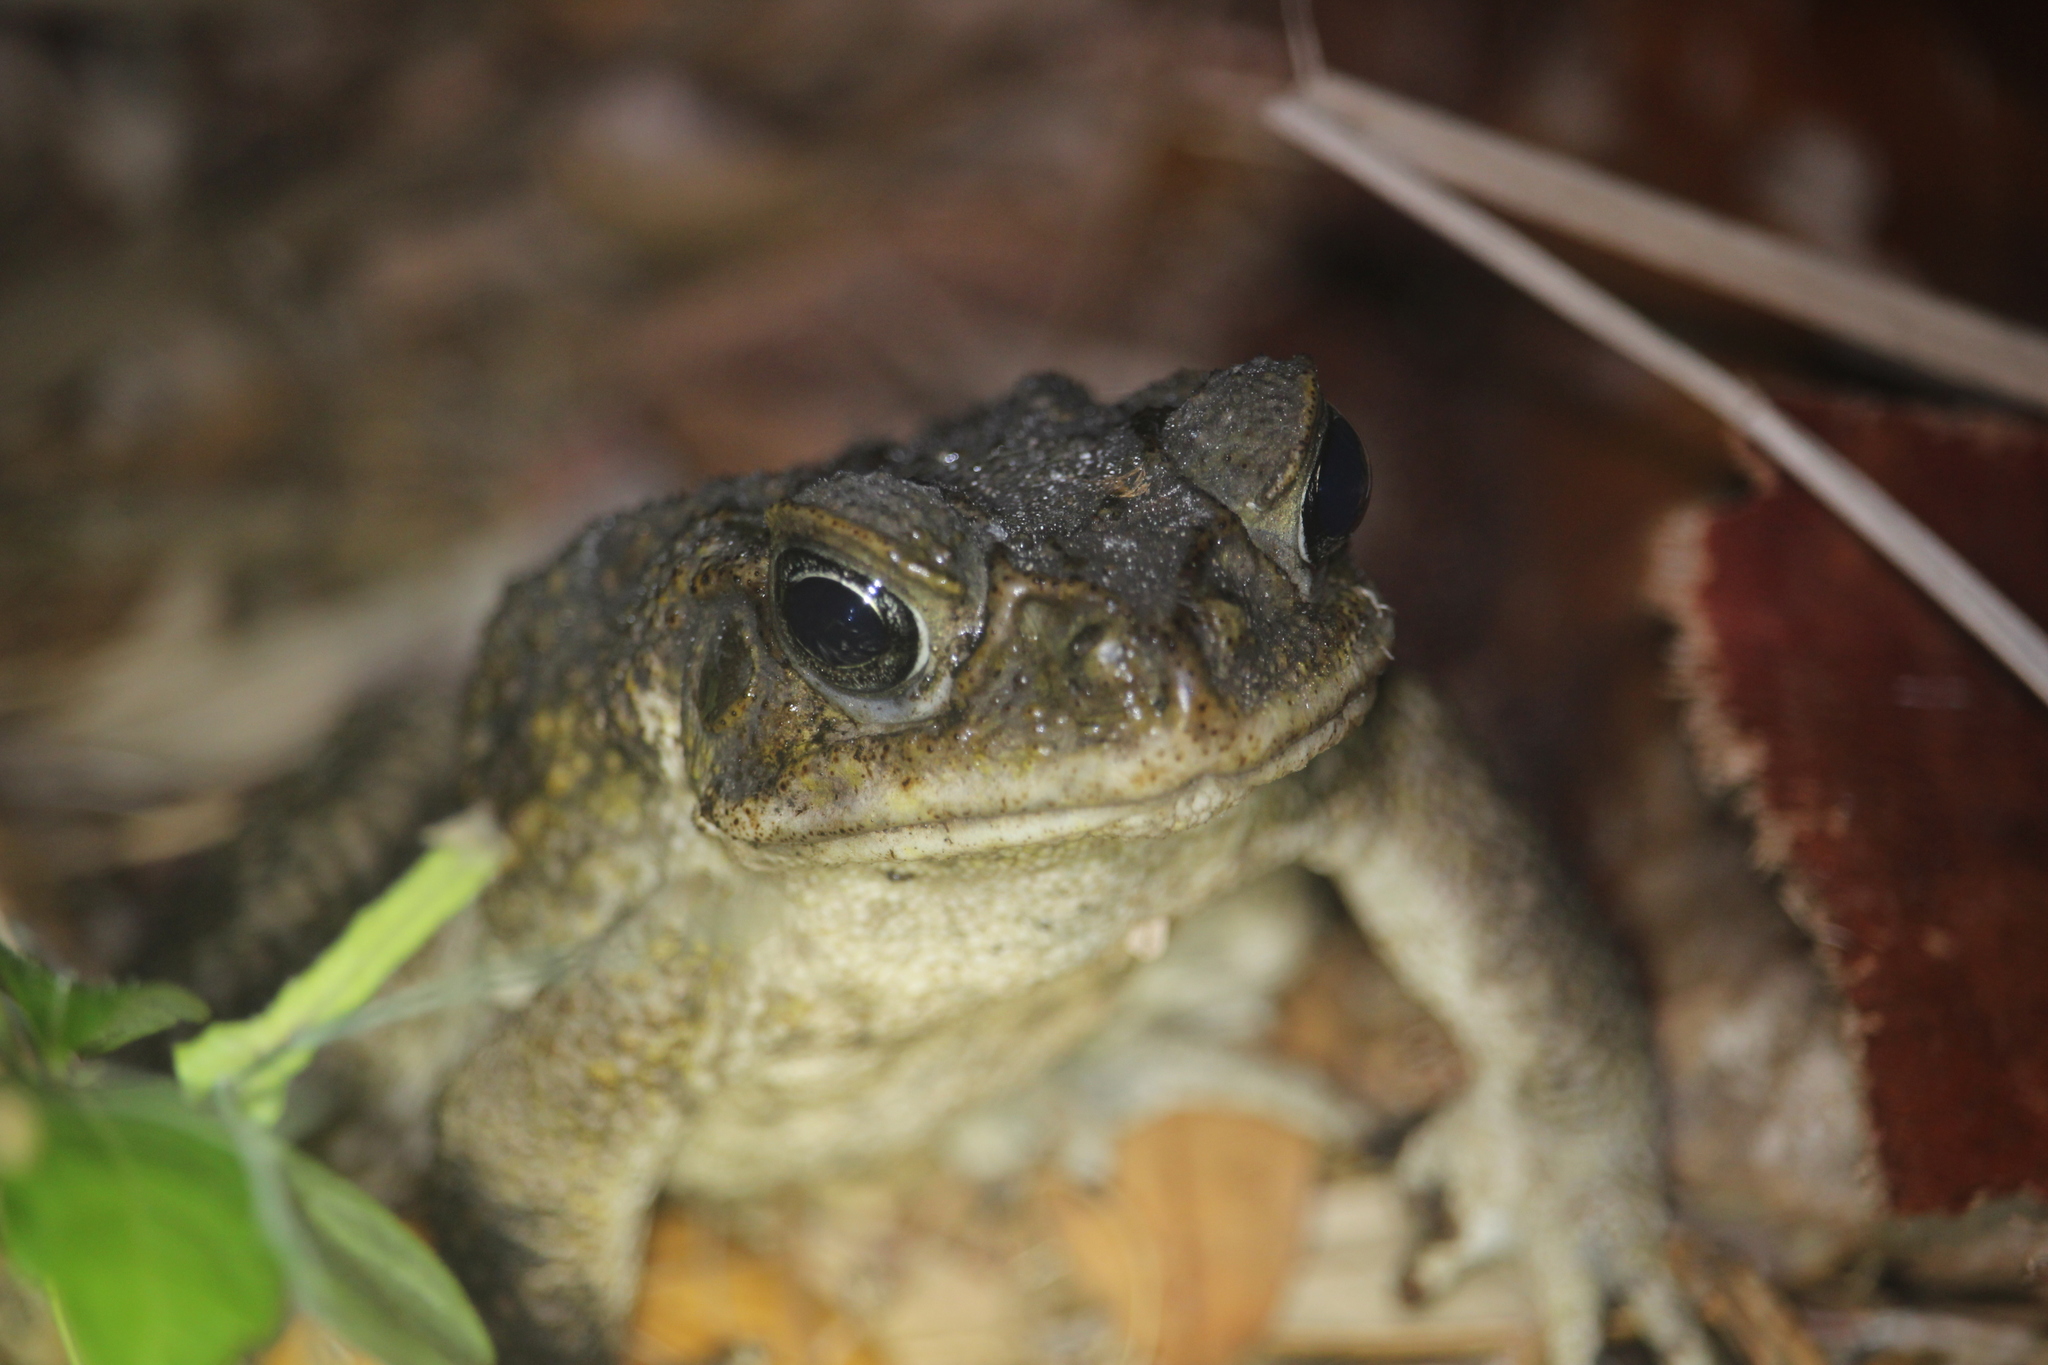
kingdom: Animalia
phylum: Chordata
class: Amphibia
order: Anura
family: Bufonidae
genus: Rhinella
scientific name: Rhinella marina
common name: Cane toad
